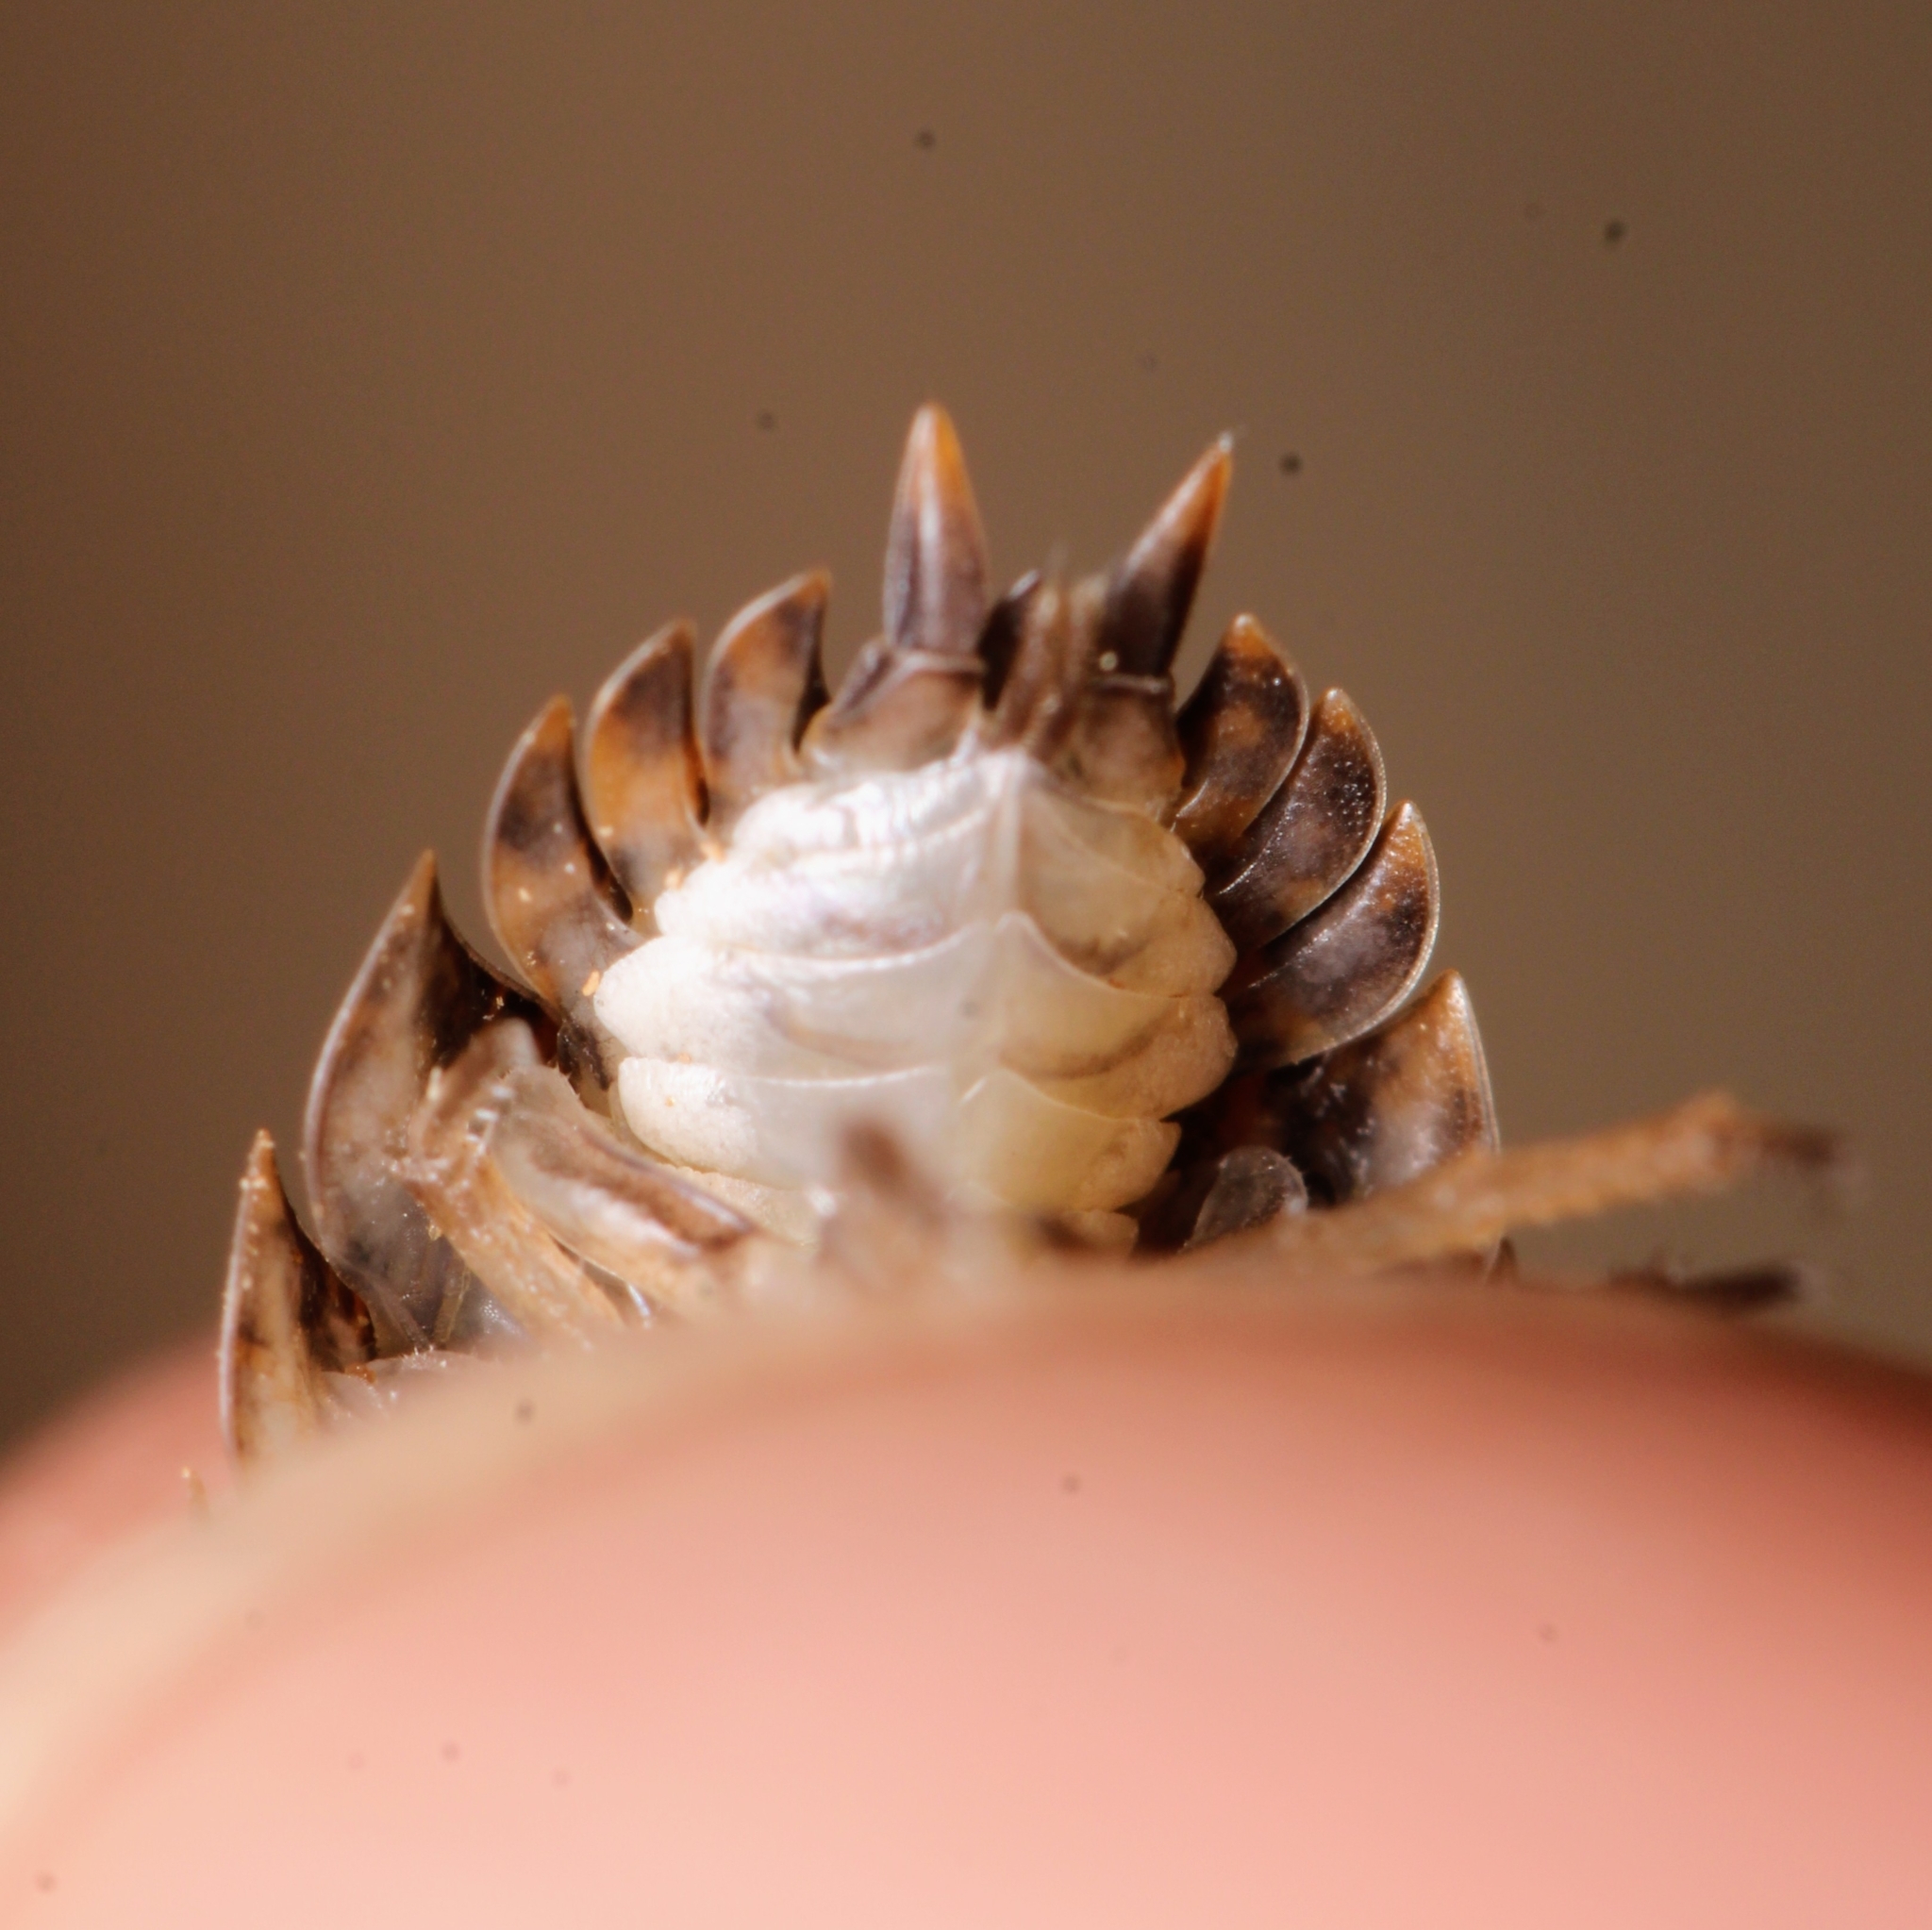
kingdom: Animalia
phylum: Arthropoda
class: Malacostraca
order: Isopoda
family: Trachelipodidae
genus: Trachelipus
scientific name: Trachelipus rathkii
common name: Isopod
